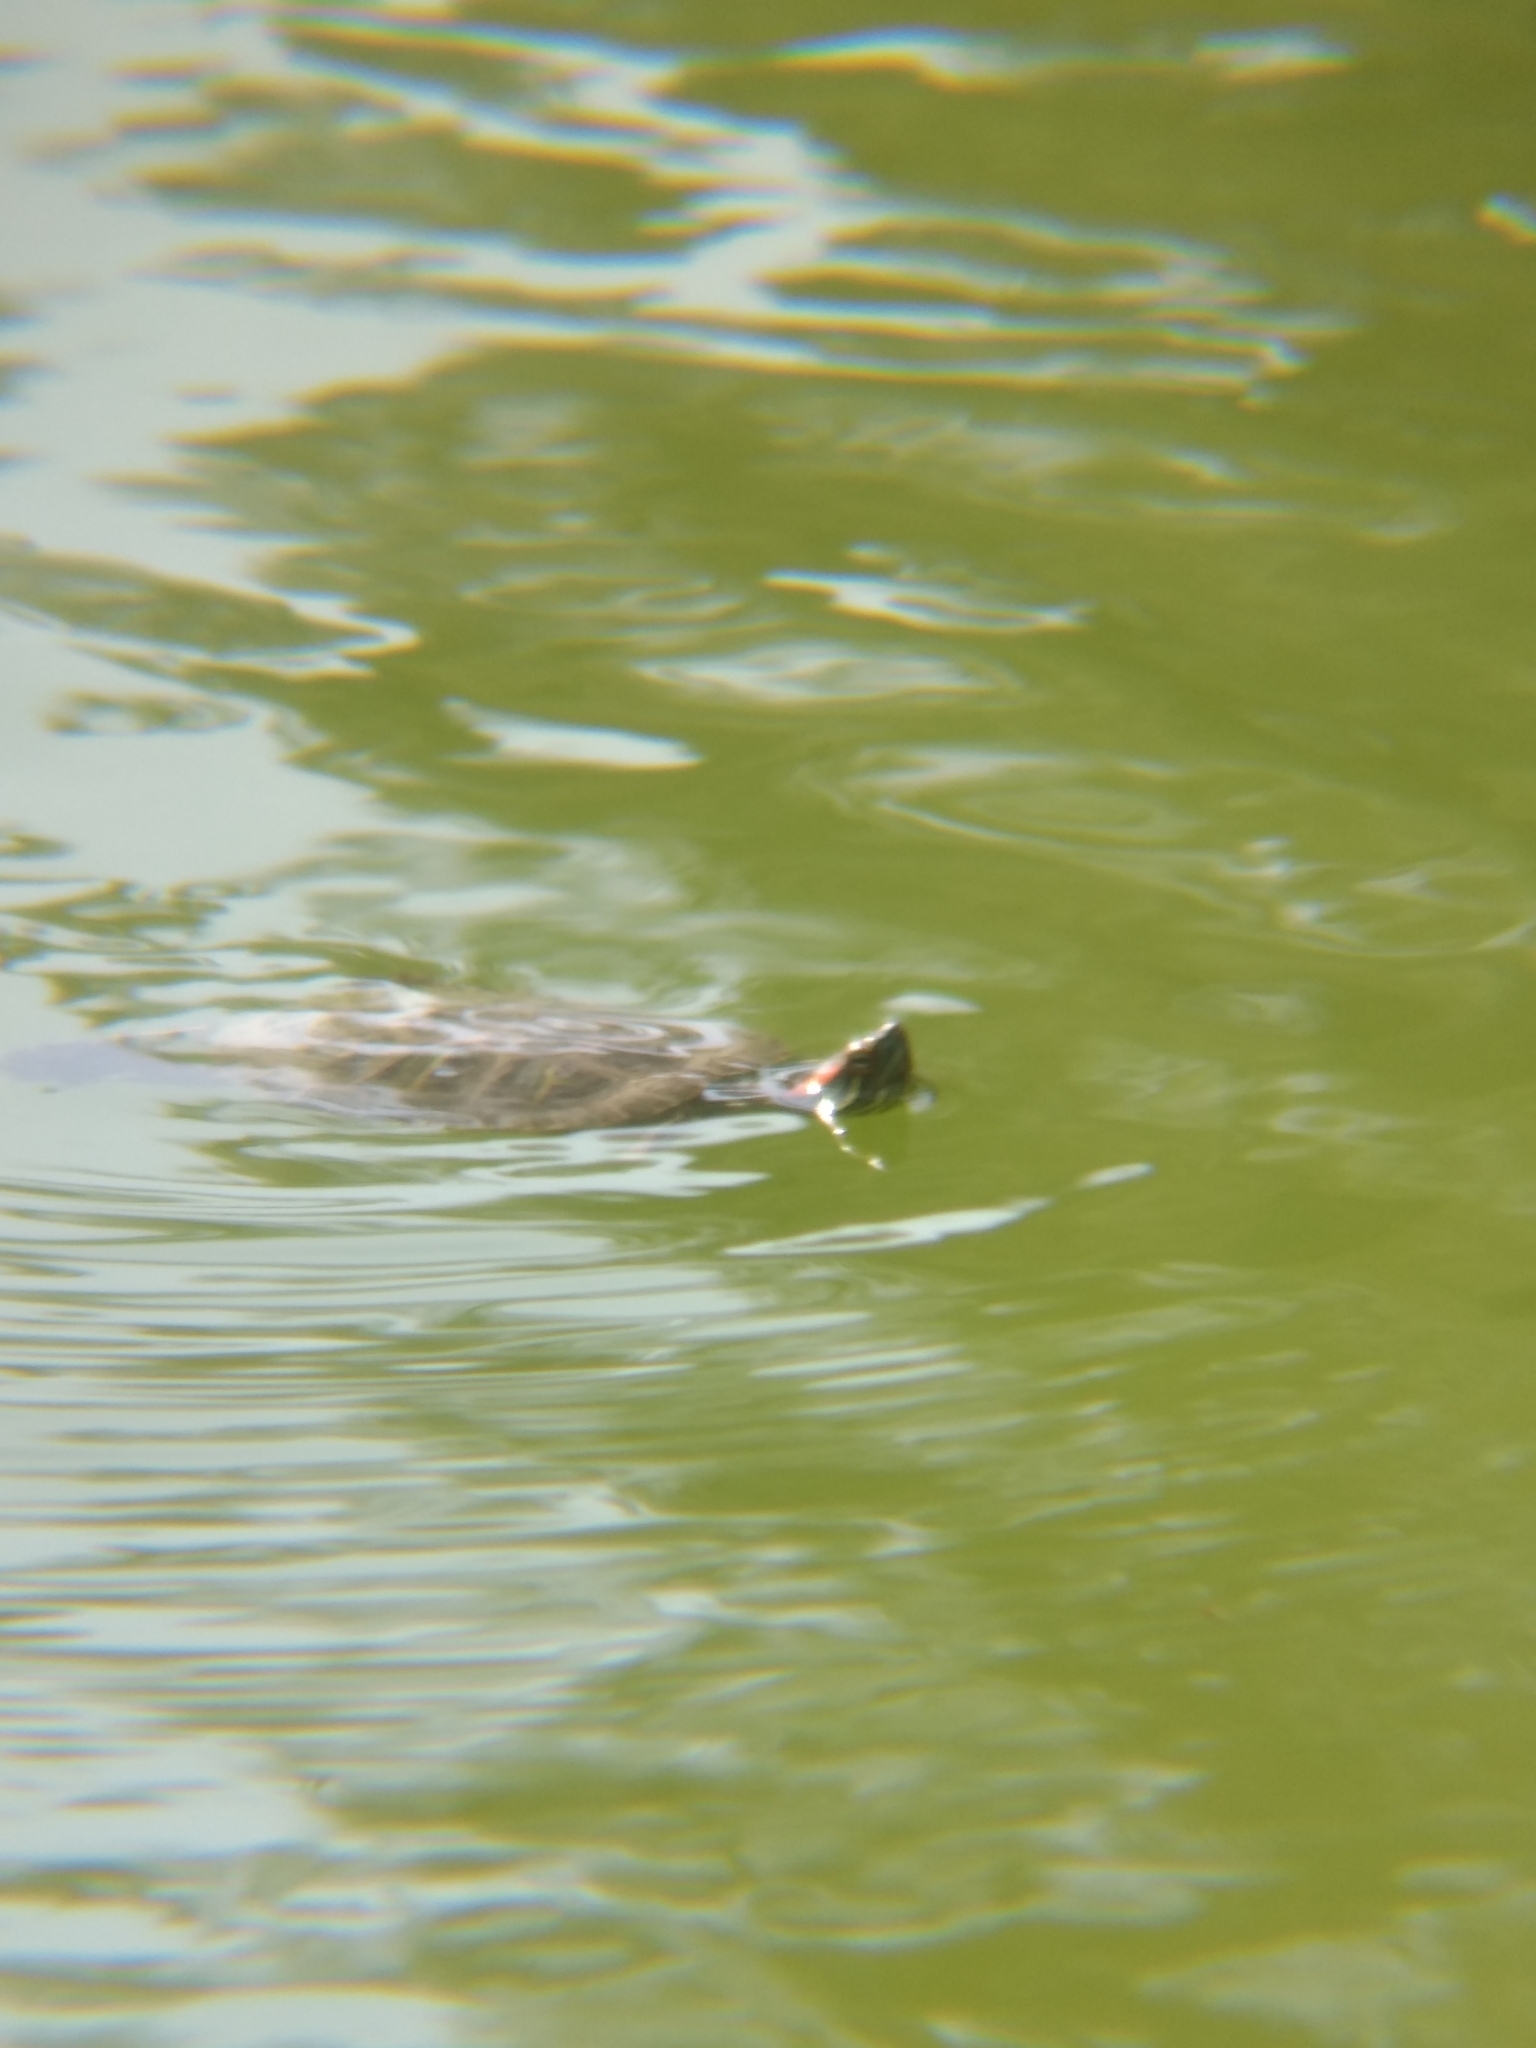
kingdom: Animalia
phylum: Chordata
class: Testudines
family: Emydidae
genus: Trachemys
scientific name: Trachemys scripta
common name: Slider
